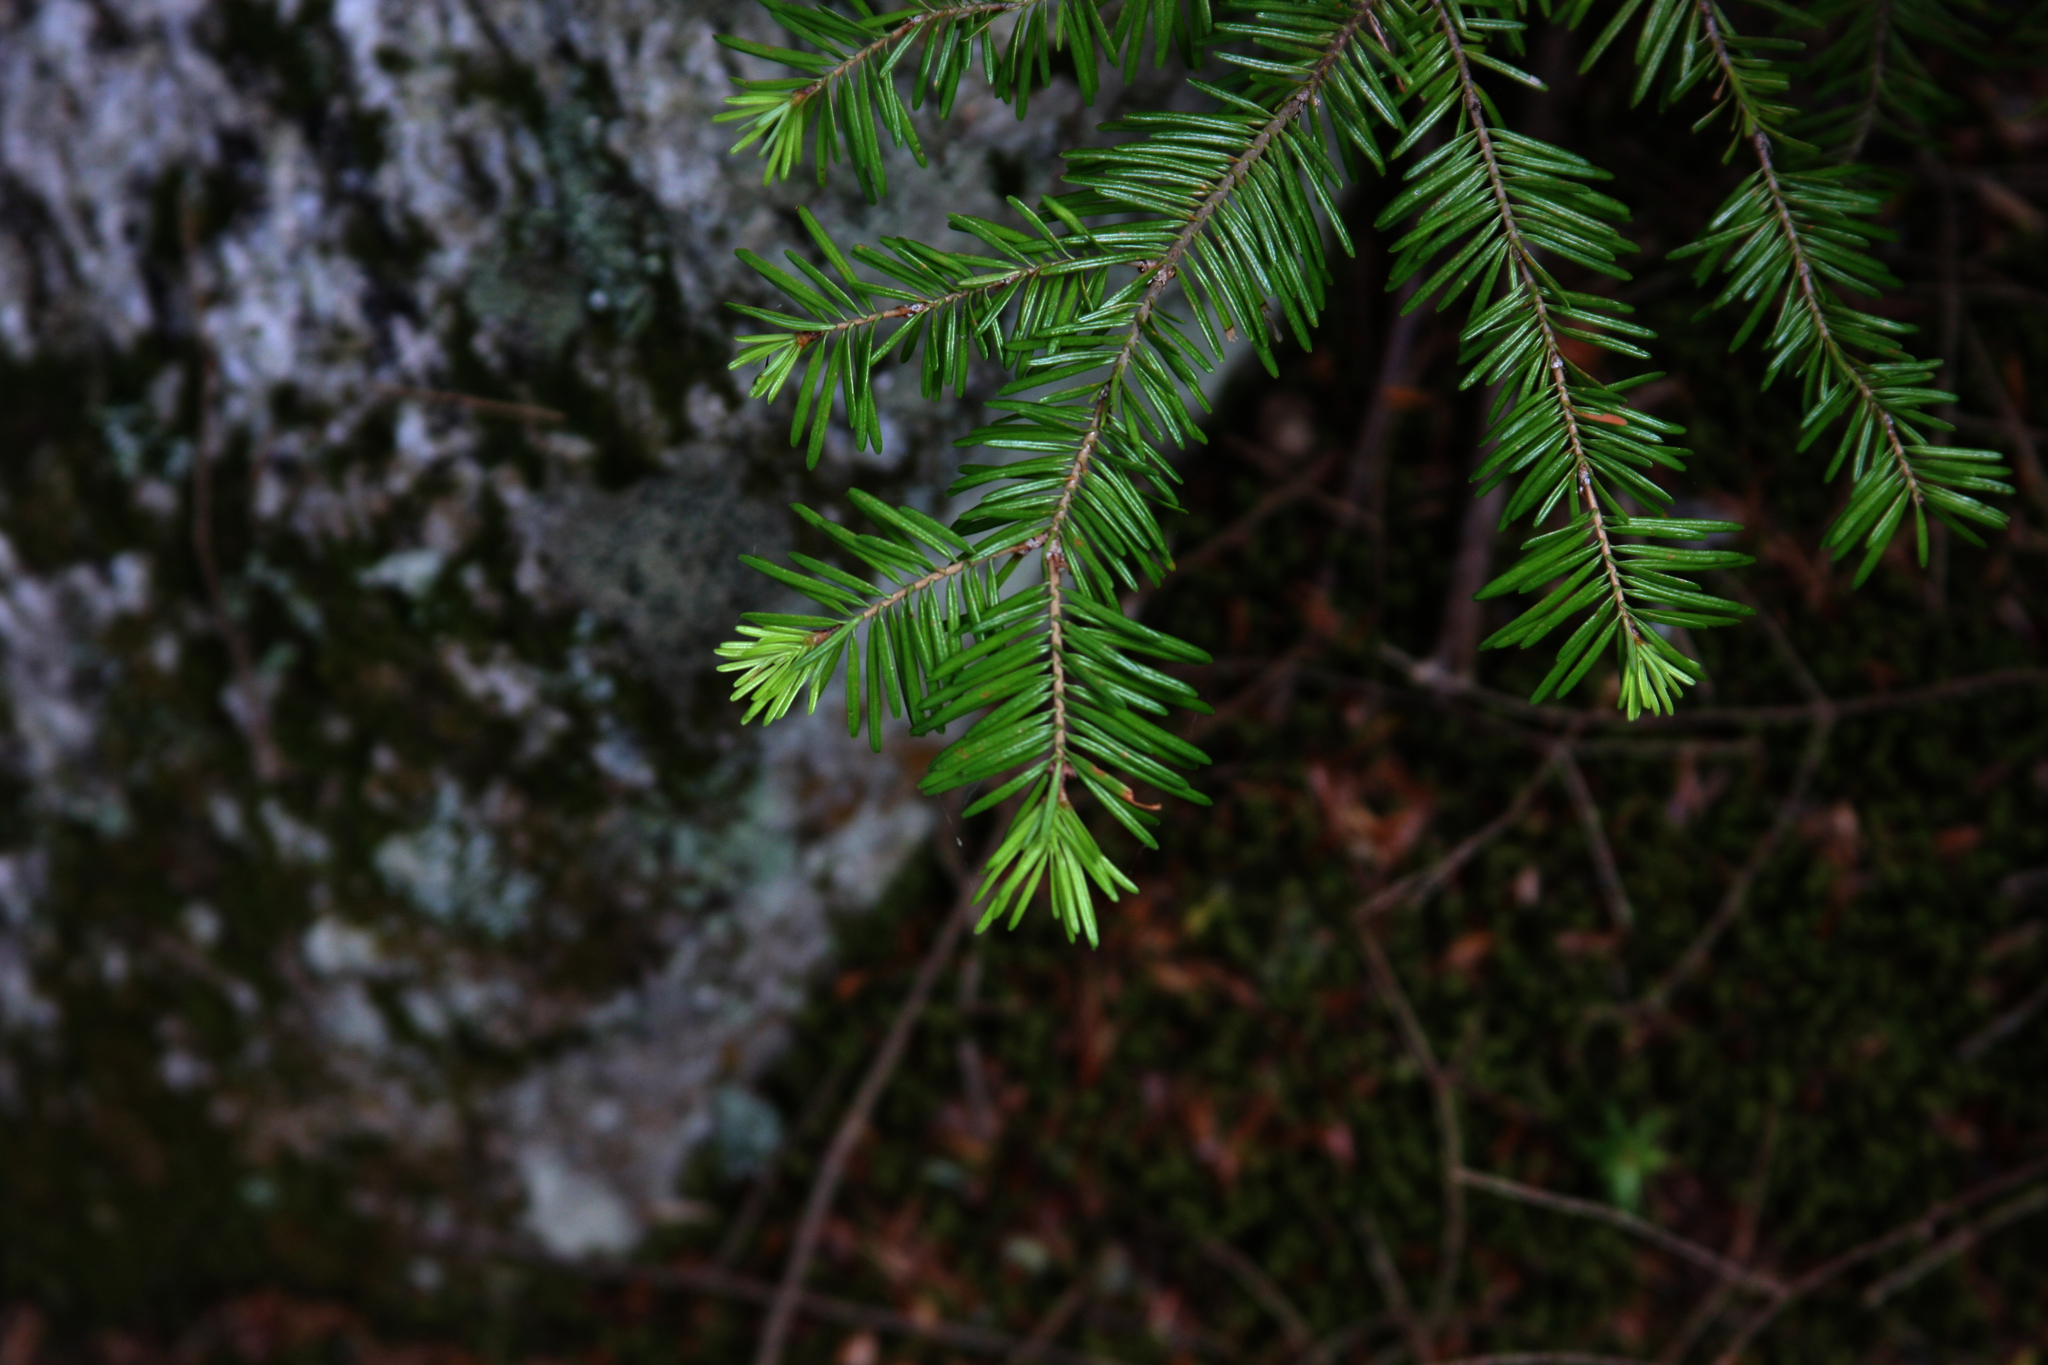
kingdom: Plantae
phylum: Tracheophyta
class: Pinopsida
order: Pinales
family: Pinaceae
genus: Abies
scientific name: Abies balsamea
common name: Balsam fir
